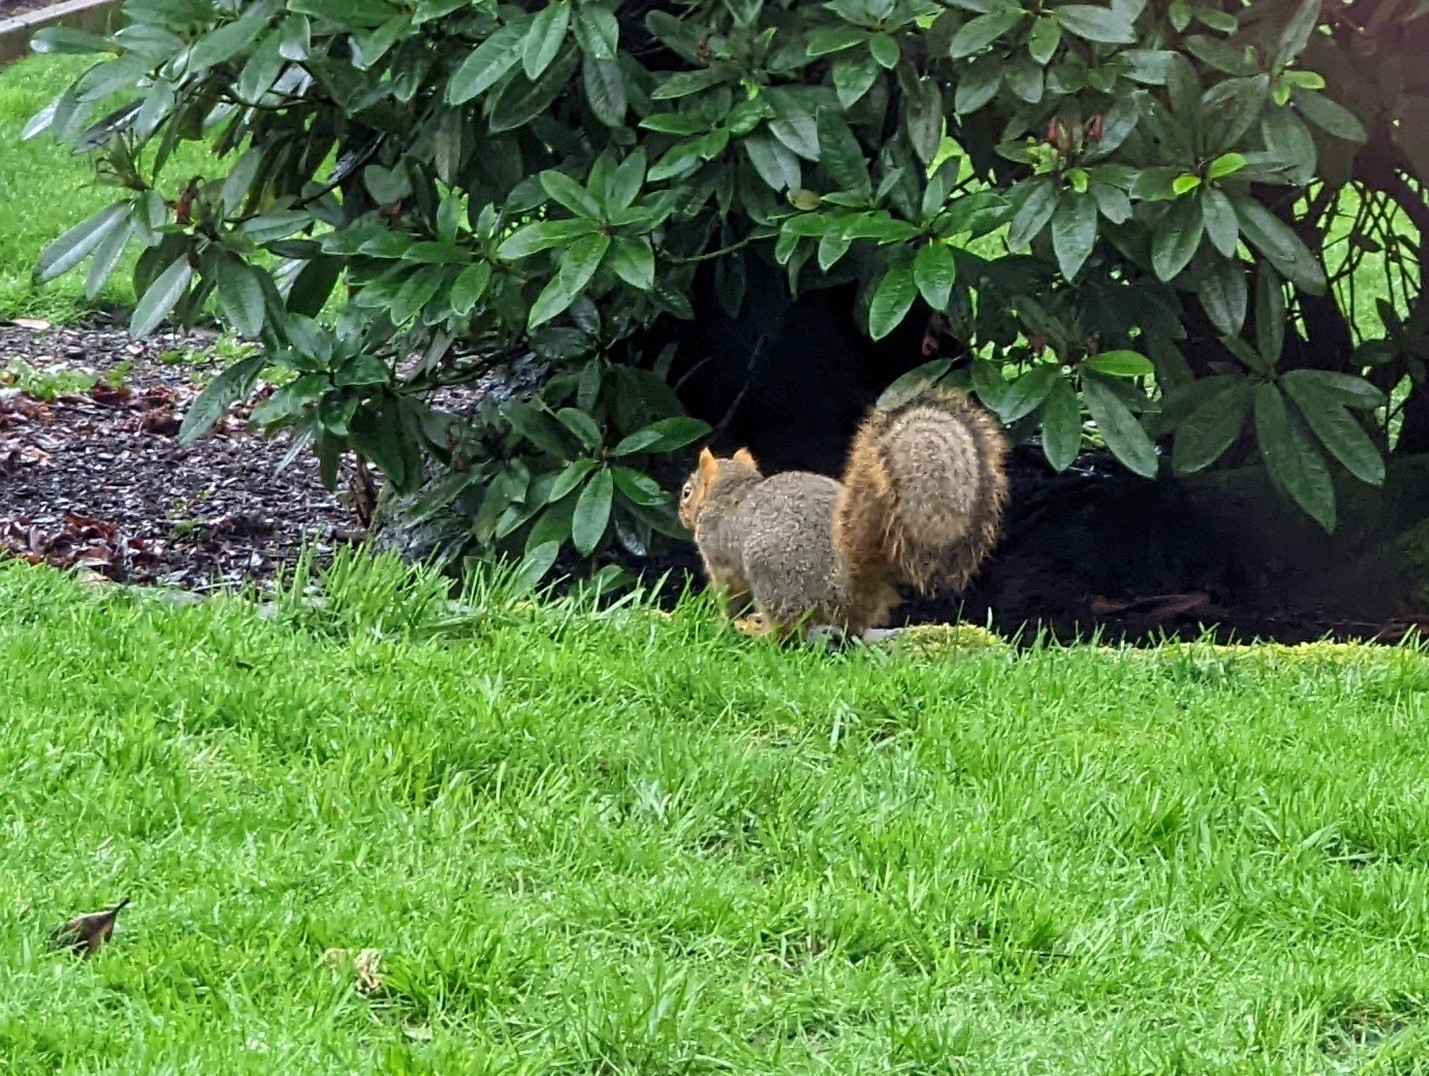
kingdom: Animalia
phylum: Chordata
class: Mammalia
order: Rodentia
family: Sciuridae
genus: Sciurus
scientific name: Sciurus niger
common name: Fox squirrel
